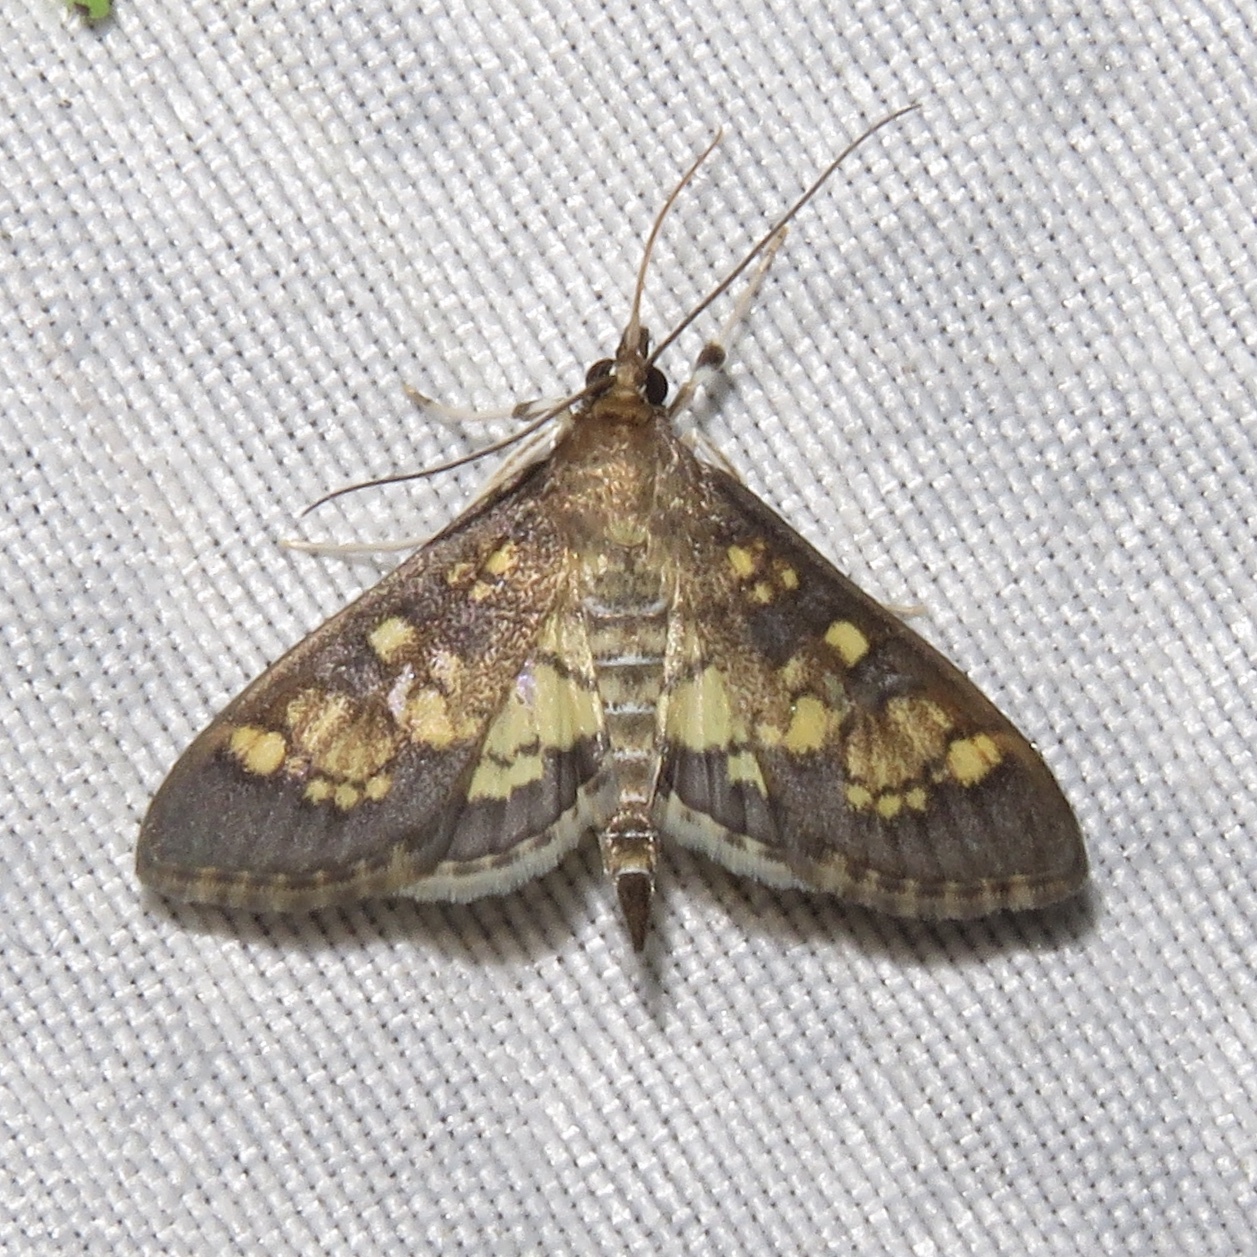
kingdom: Animalia
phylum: Arthropoda
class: Insecta
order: Lepidoptera
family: Crambidae
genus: Epipagis
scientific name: Epipagis adipaloides
